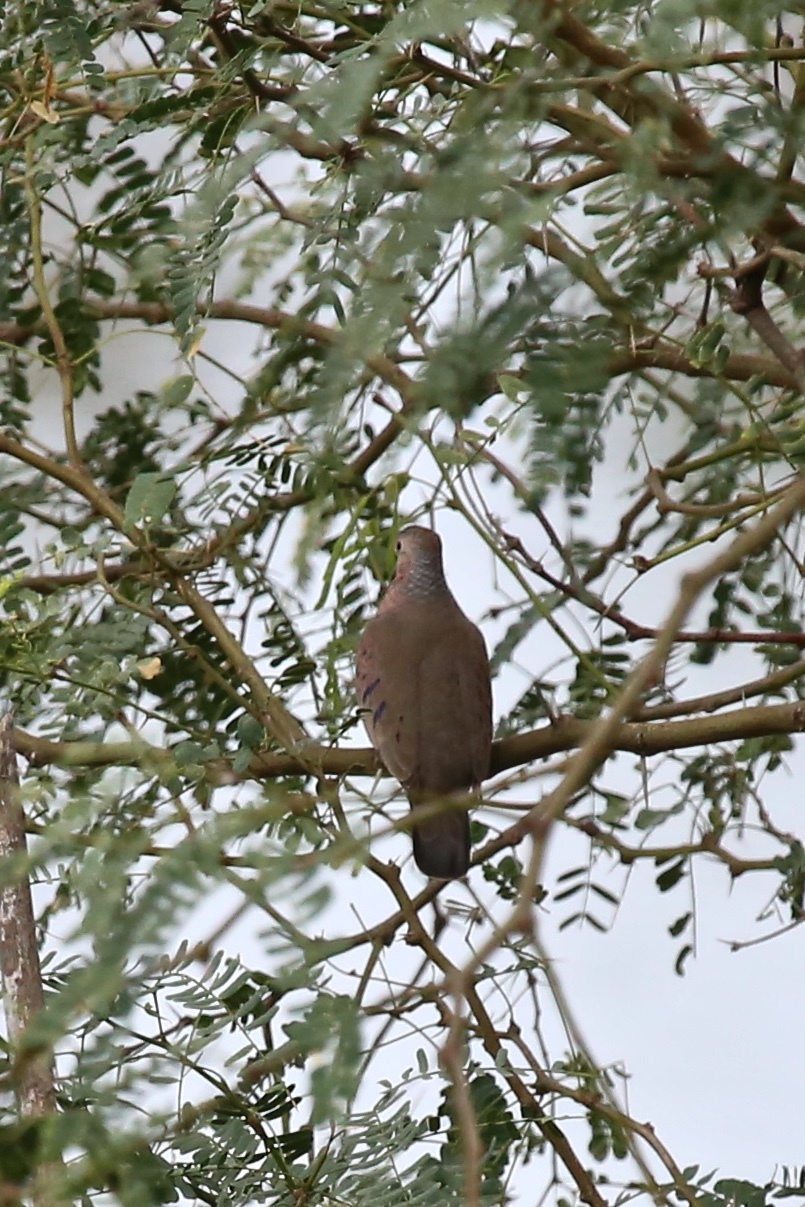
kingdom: Animalia
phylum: Chordata
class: Aves
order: Columbiformes
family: Columbidae
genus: Columbina
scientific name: Columbina passerina
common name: Common ground-dove
